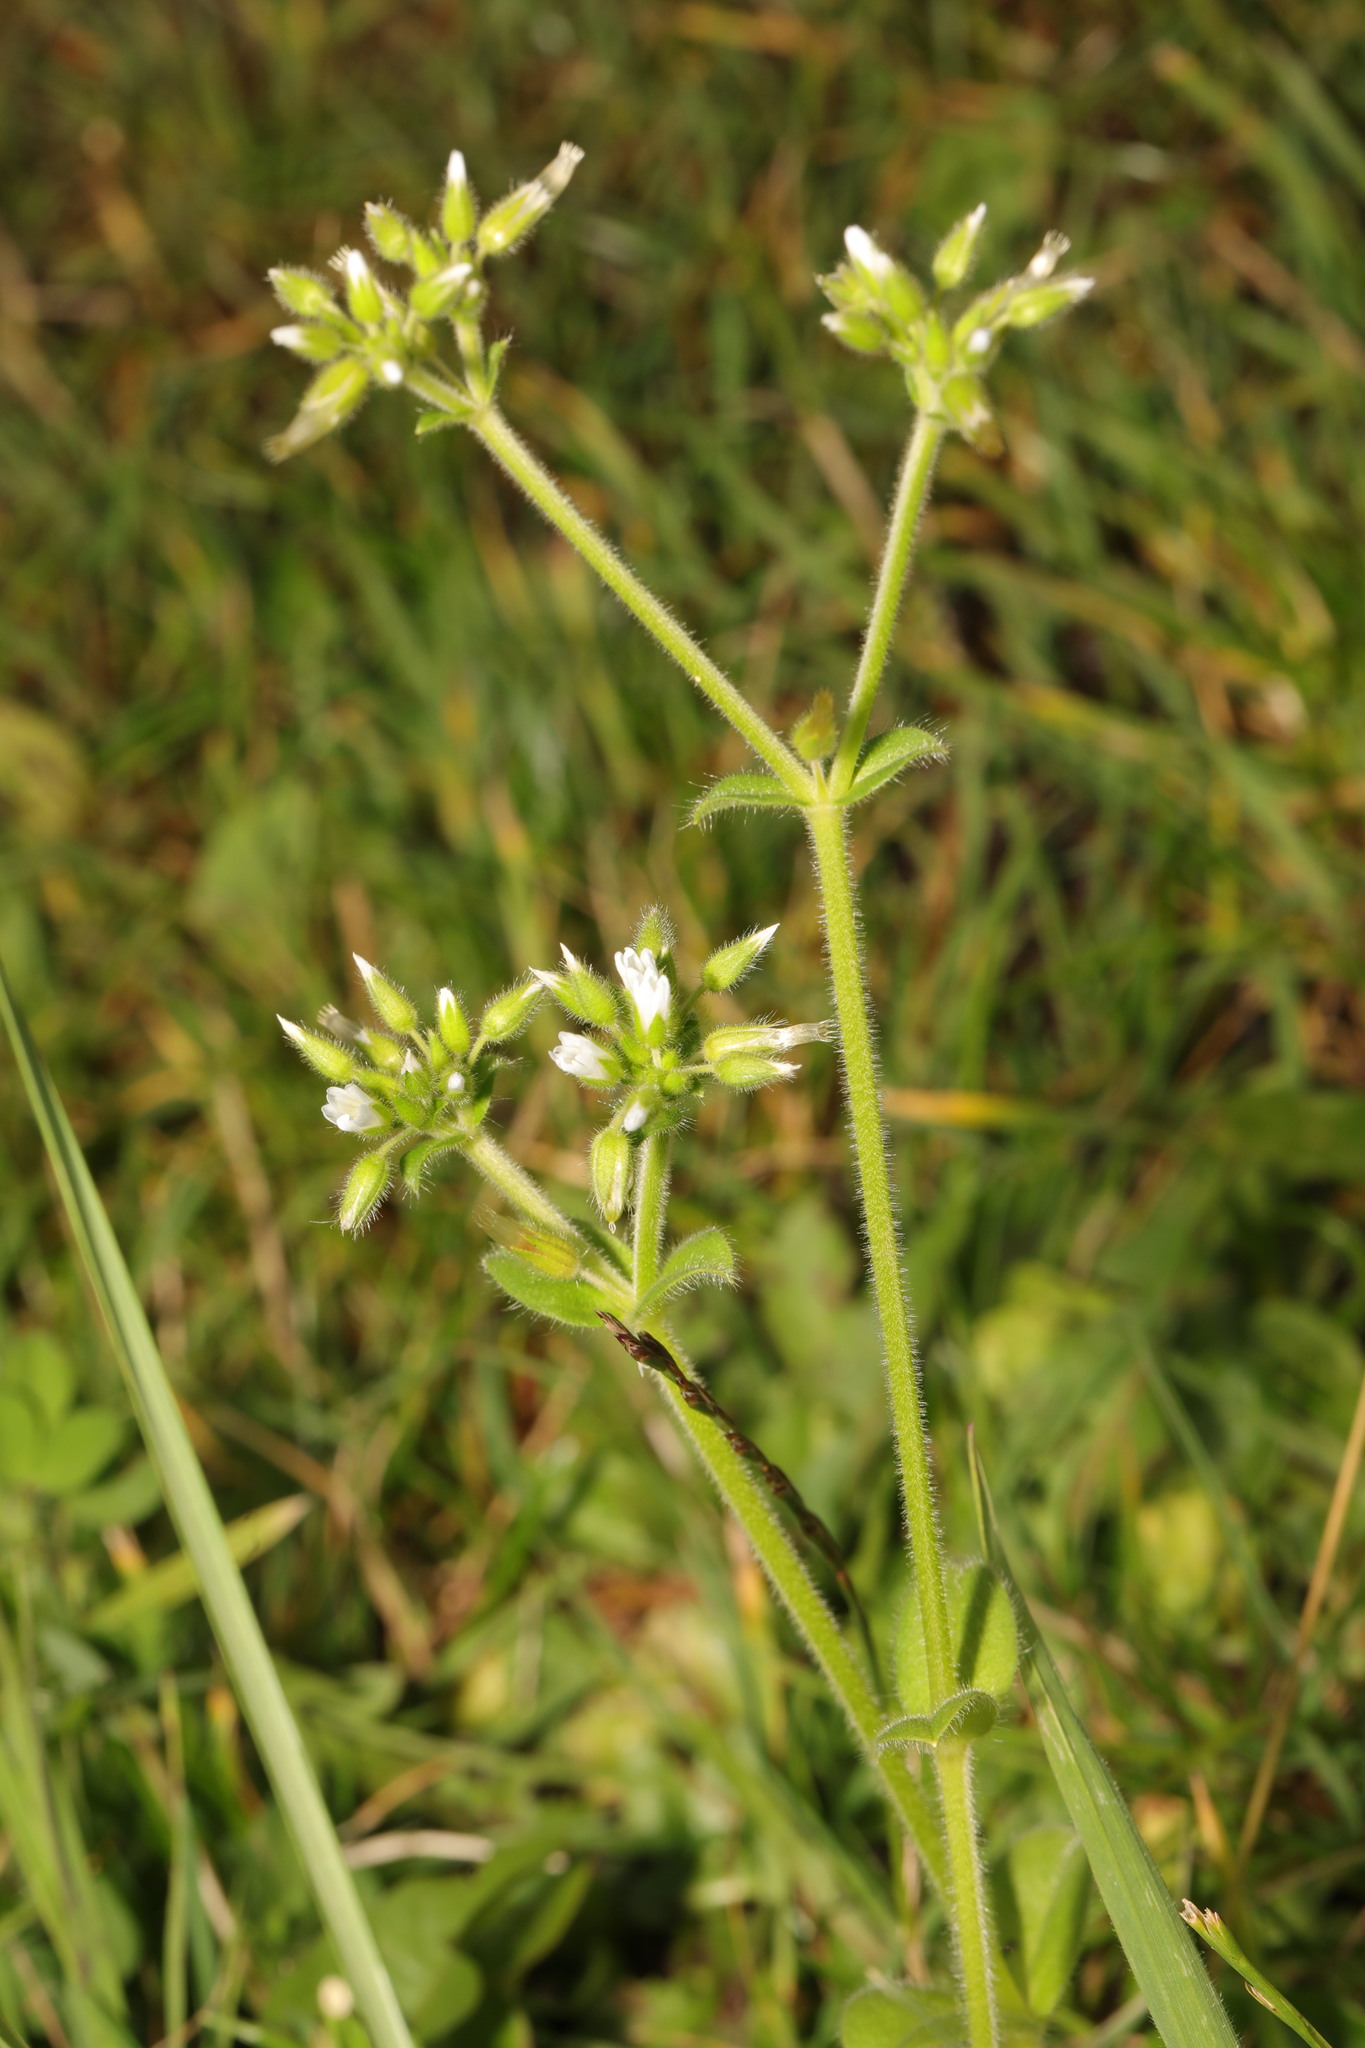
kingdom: Plantae
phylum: Tracheophyta
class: Magnoliopsida
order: Caryophyllales
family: Caryophyllaceae
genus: Cerastium
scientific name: Cerastium glomeratum
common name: Sticky chickweed
